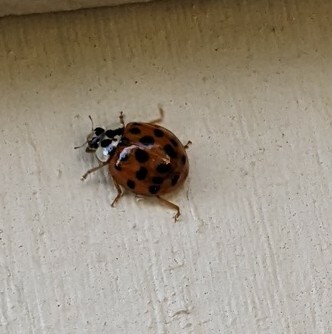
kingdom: Animalia
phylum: Arthropoda
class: Insecta
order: Coleoptera
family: Coccinellidae
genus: Harmonia
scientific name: Harmonia axyridis
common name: Harlequin ladybird
